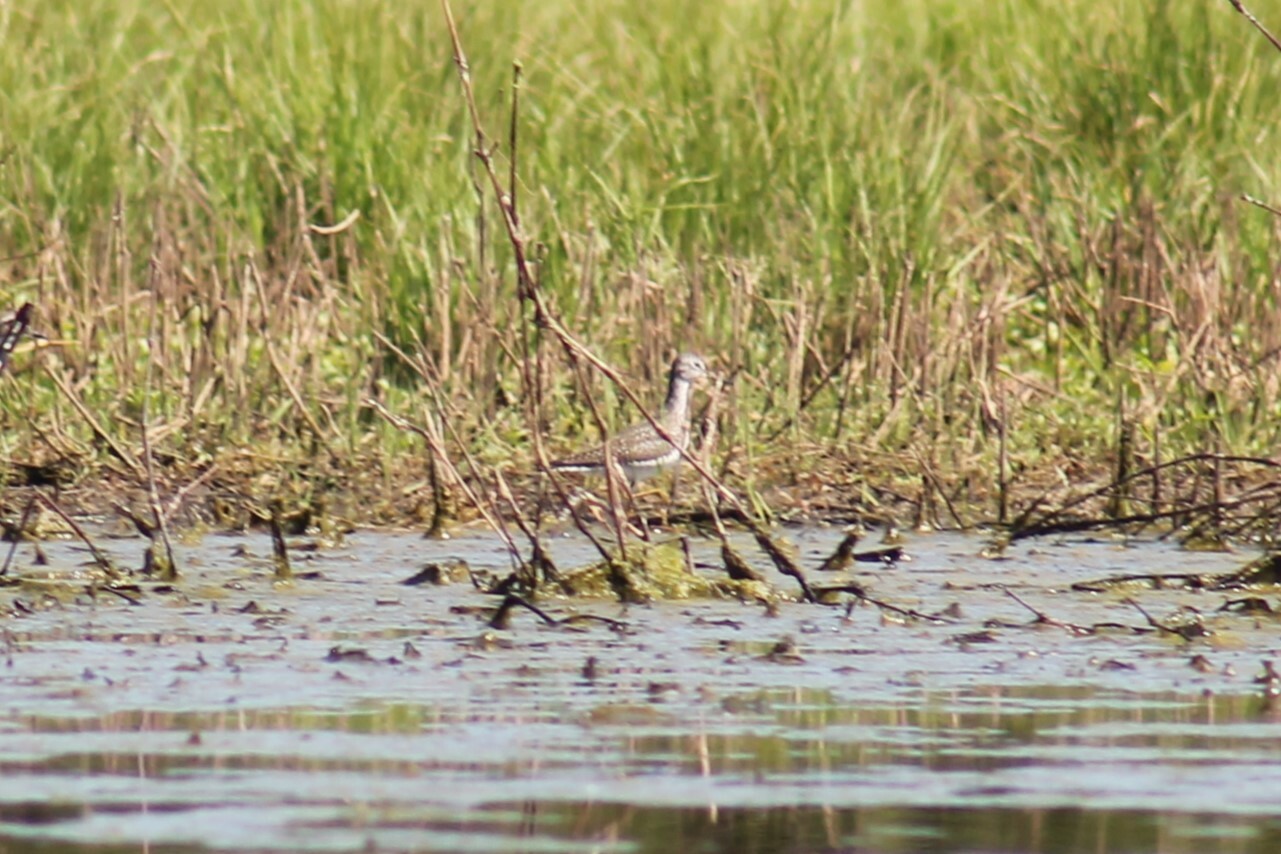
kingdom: Animalia
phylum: Chordata
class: Aves
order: Charadriiformes
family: Scolopacidae
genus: Tringa
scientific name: Tringa solitaria
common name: Solitary sandpiper
